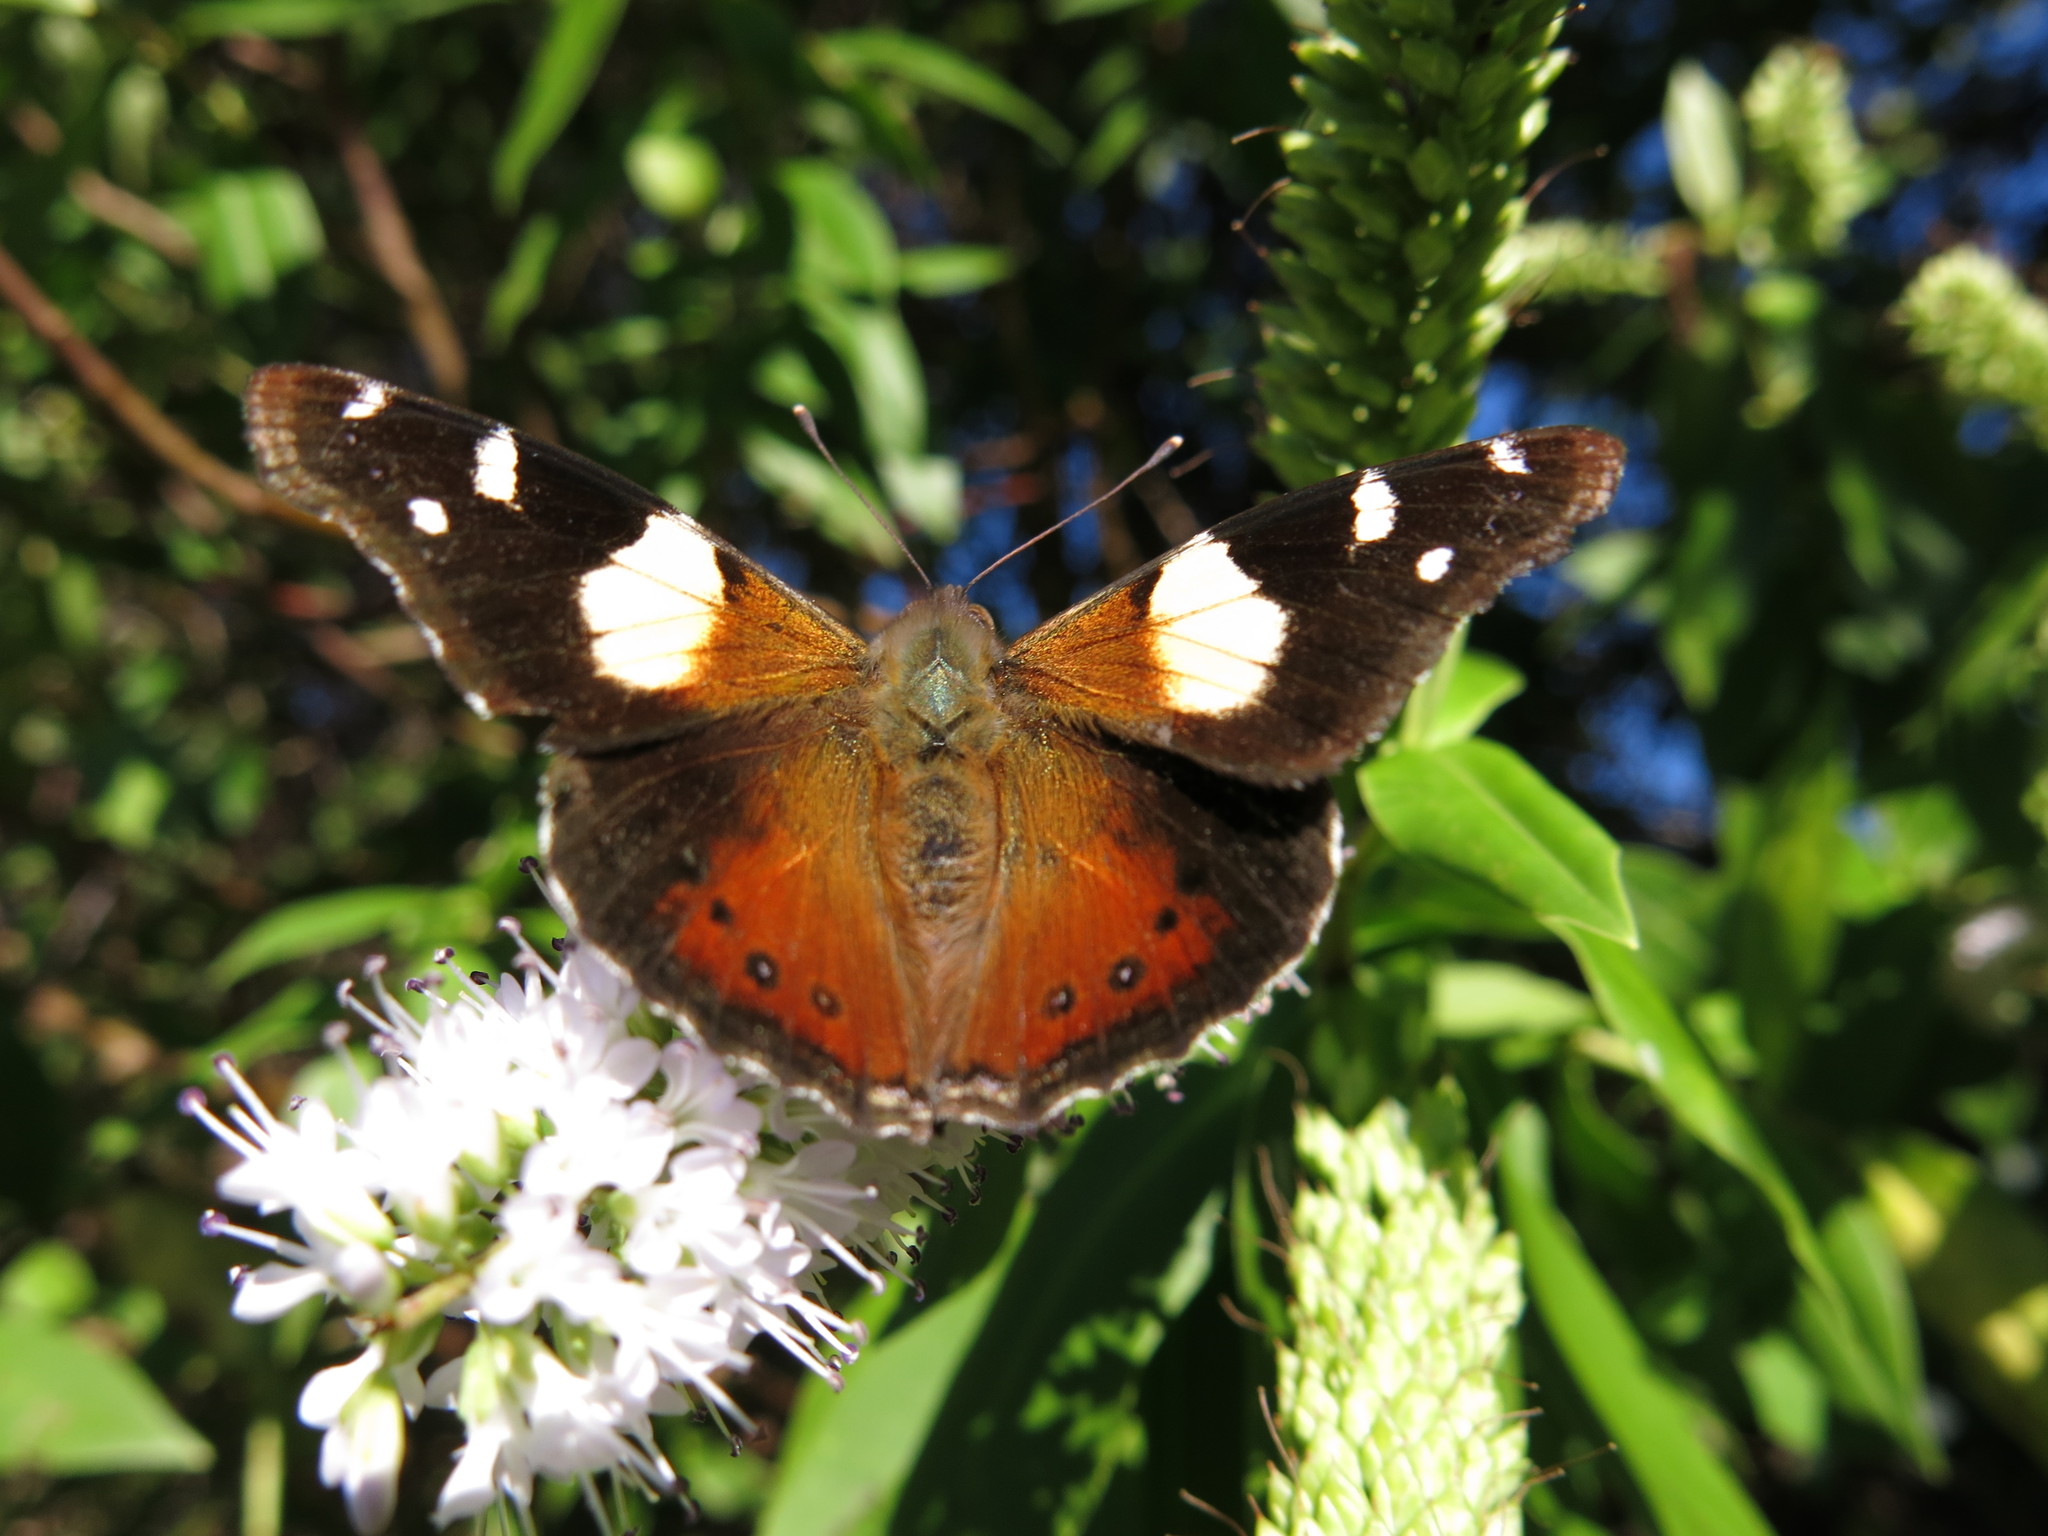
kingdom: Animalia
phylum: Arthropoda
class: Insecta
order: Lepidoptera
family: Nymphalidae
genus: Vanessa
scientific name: Vanessa itea
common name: Yellow admiral
